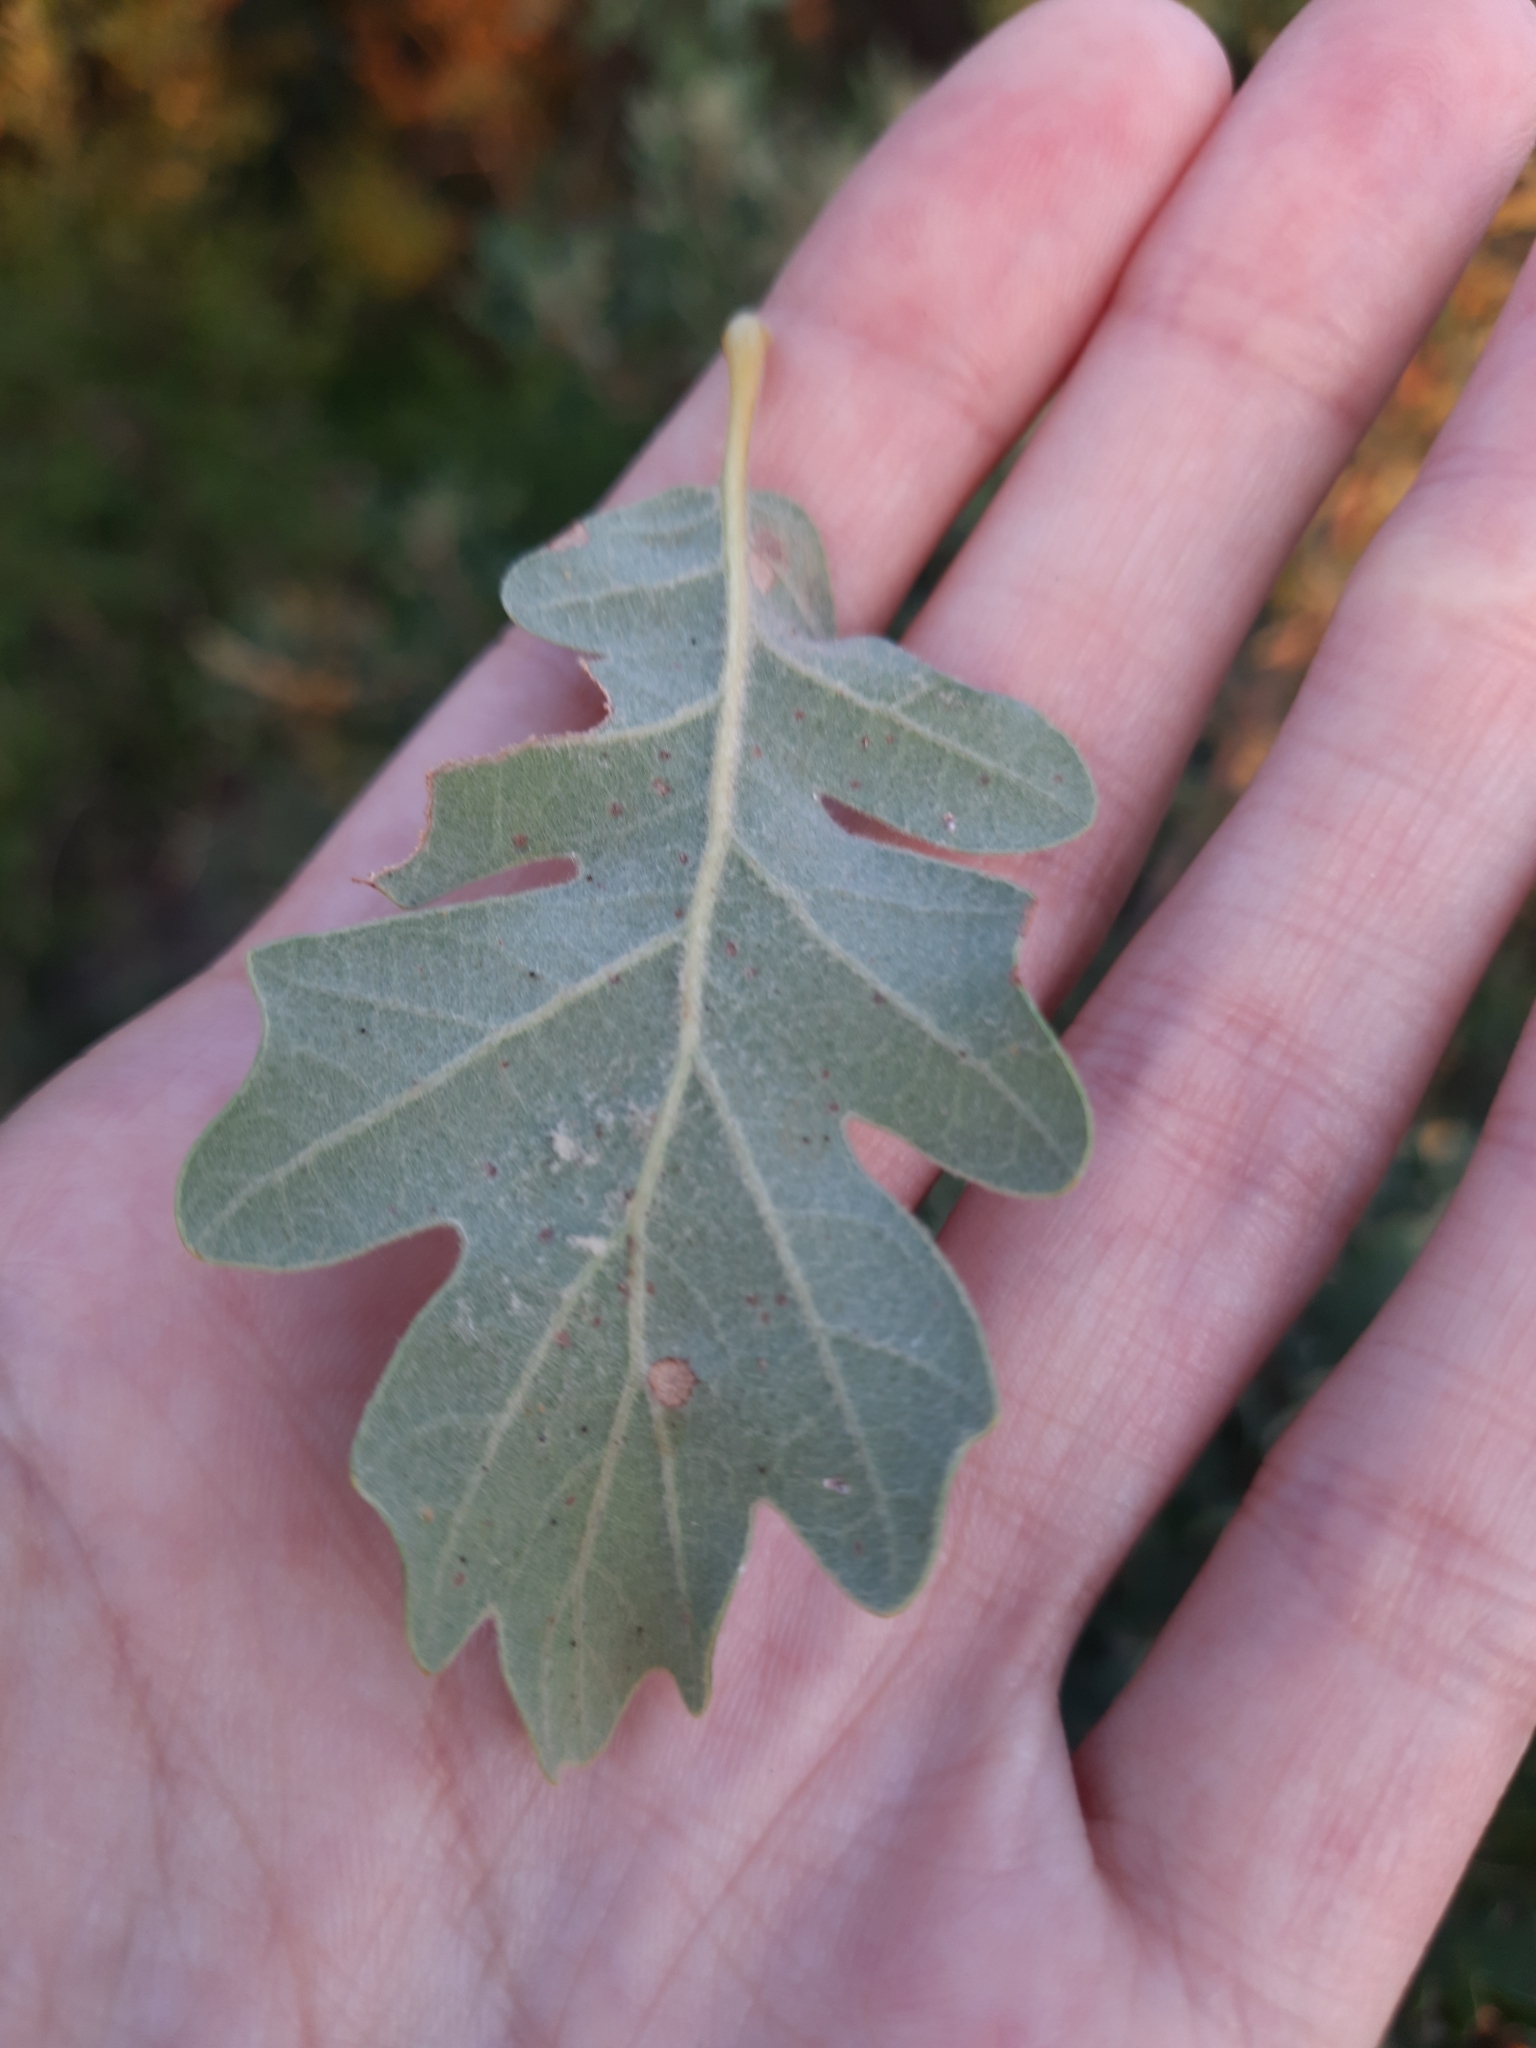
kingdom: Plantae
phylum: Tracheophyta
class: Magnoliopsida
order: Fagales
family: Fagaceae
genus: Quercus
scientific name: Quercus pubescens
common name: Downy oak
